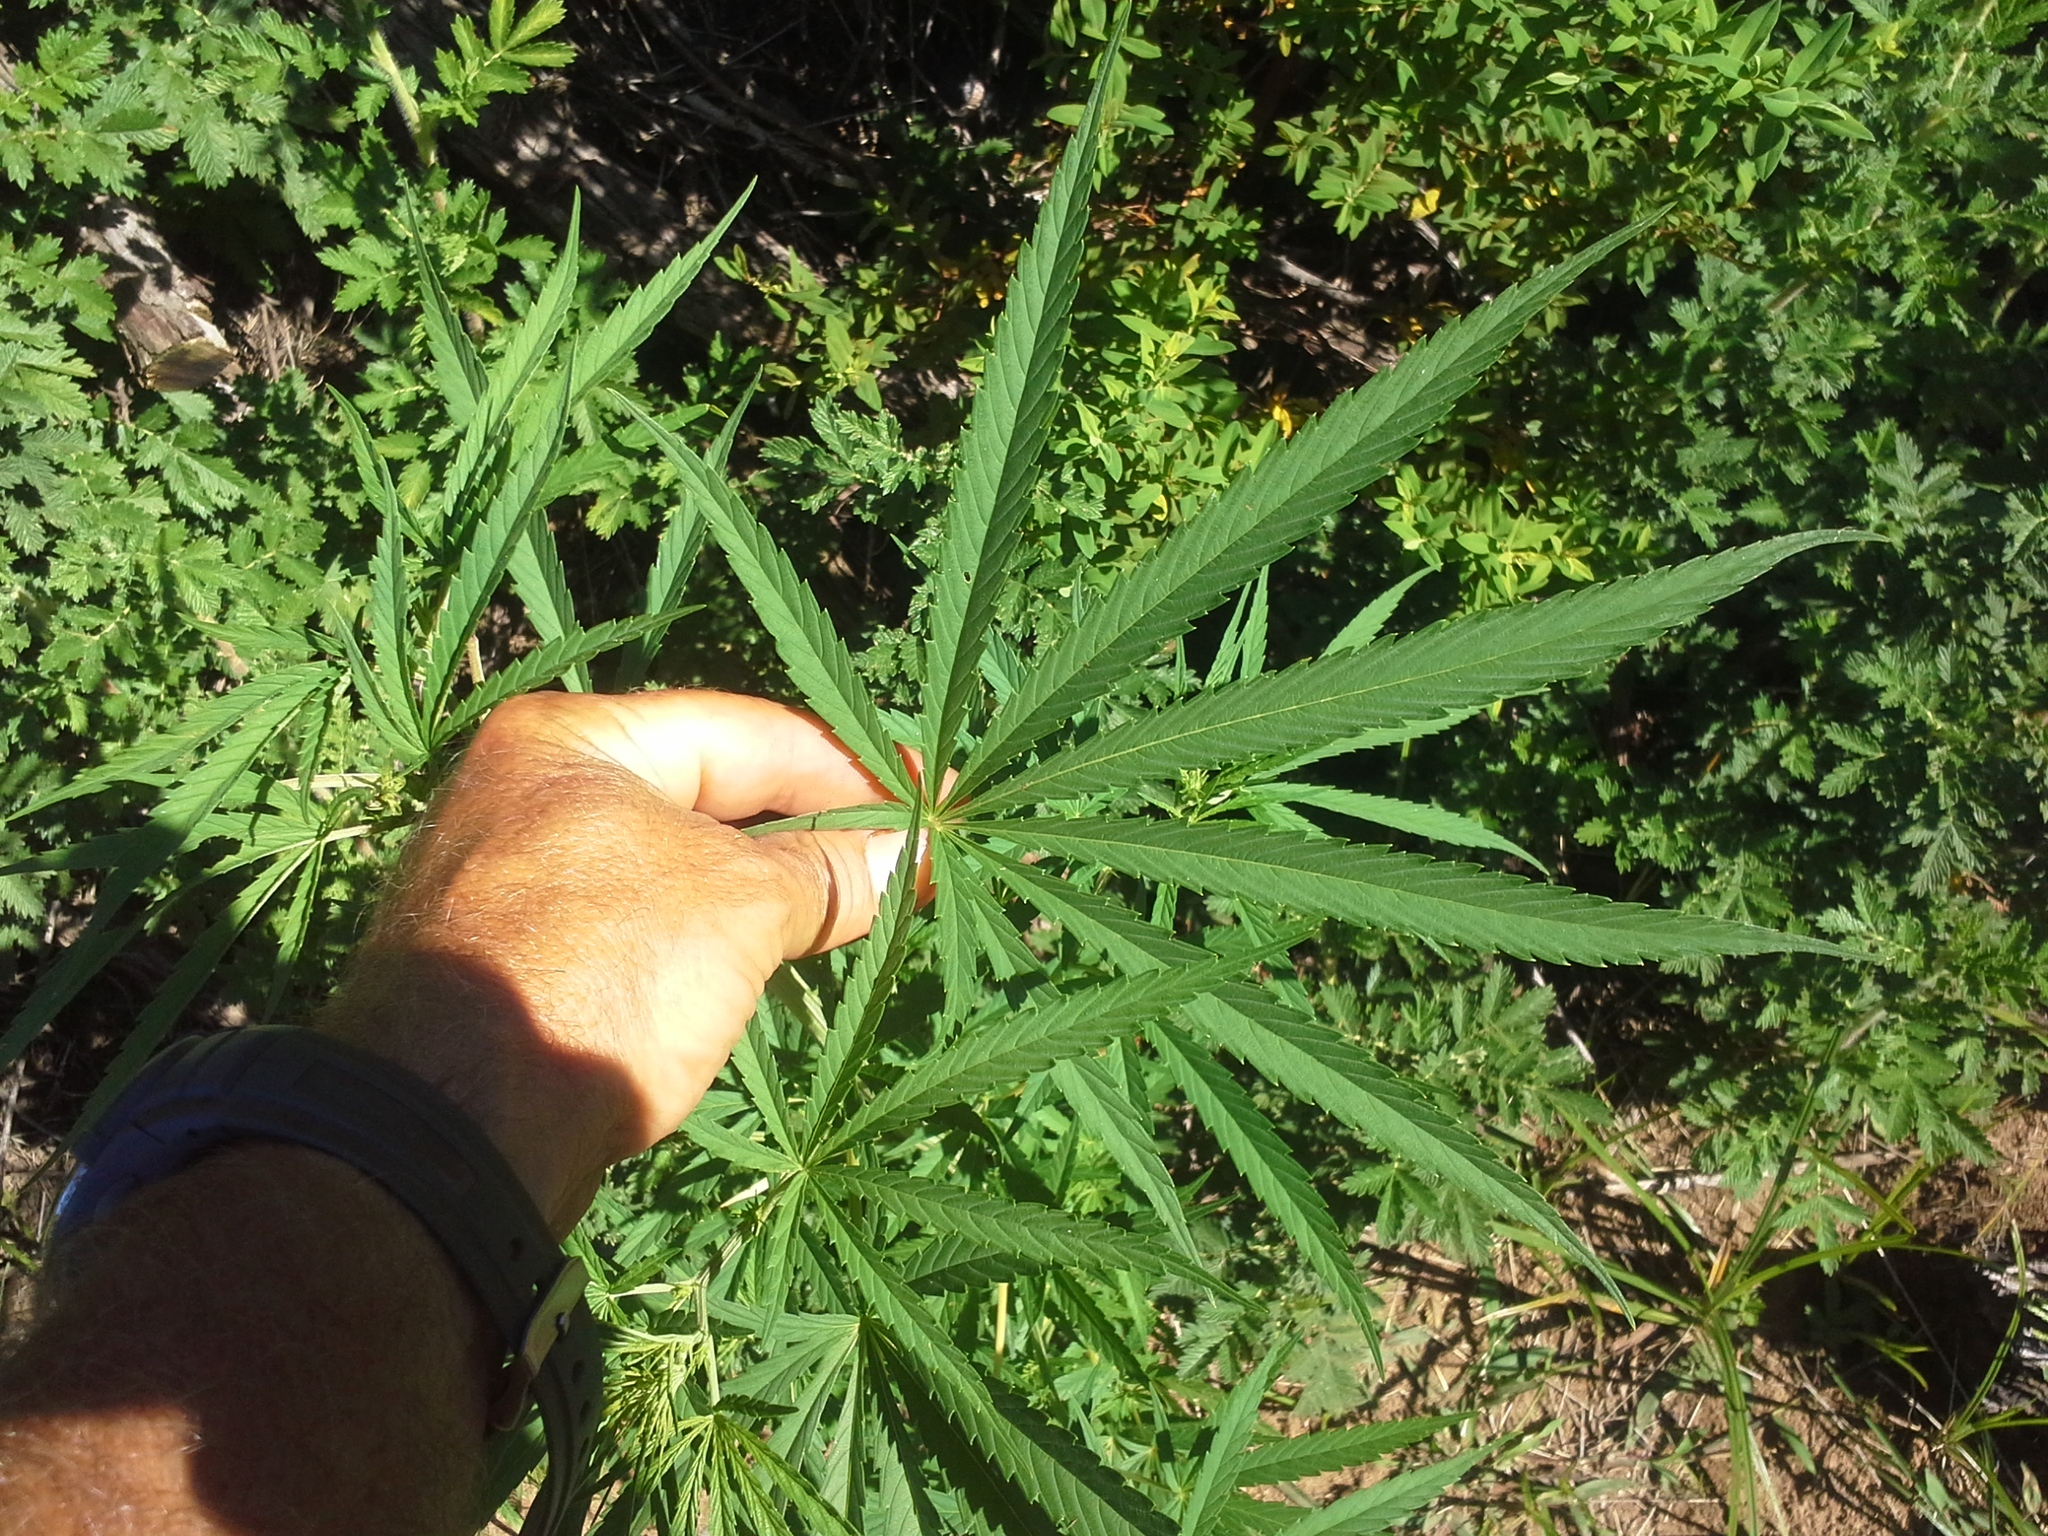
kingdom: Plantae
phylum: Tracheophyta
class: Magnoliopsida
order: Rosales
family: Cannabaceae
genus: Cannabis
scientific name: Cannabis sativa
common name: Hemp
